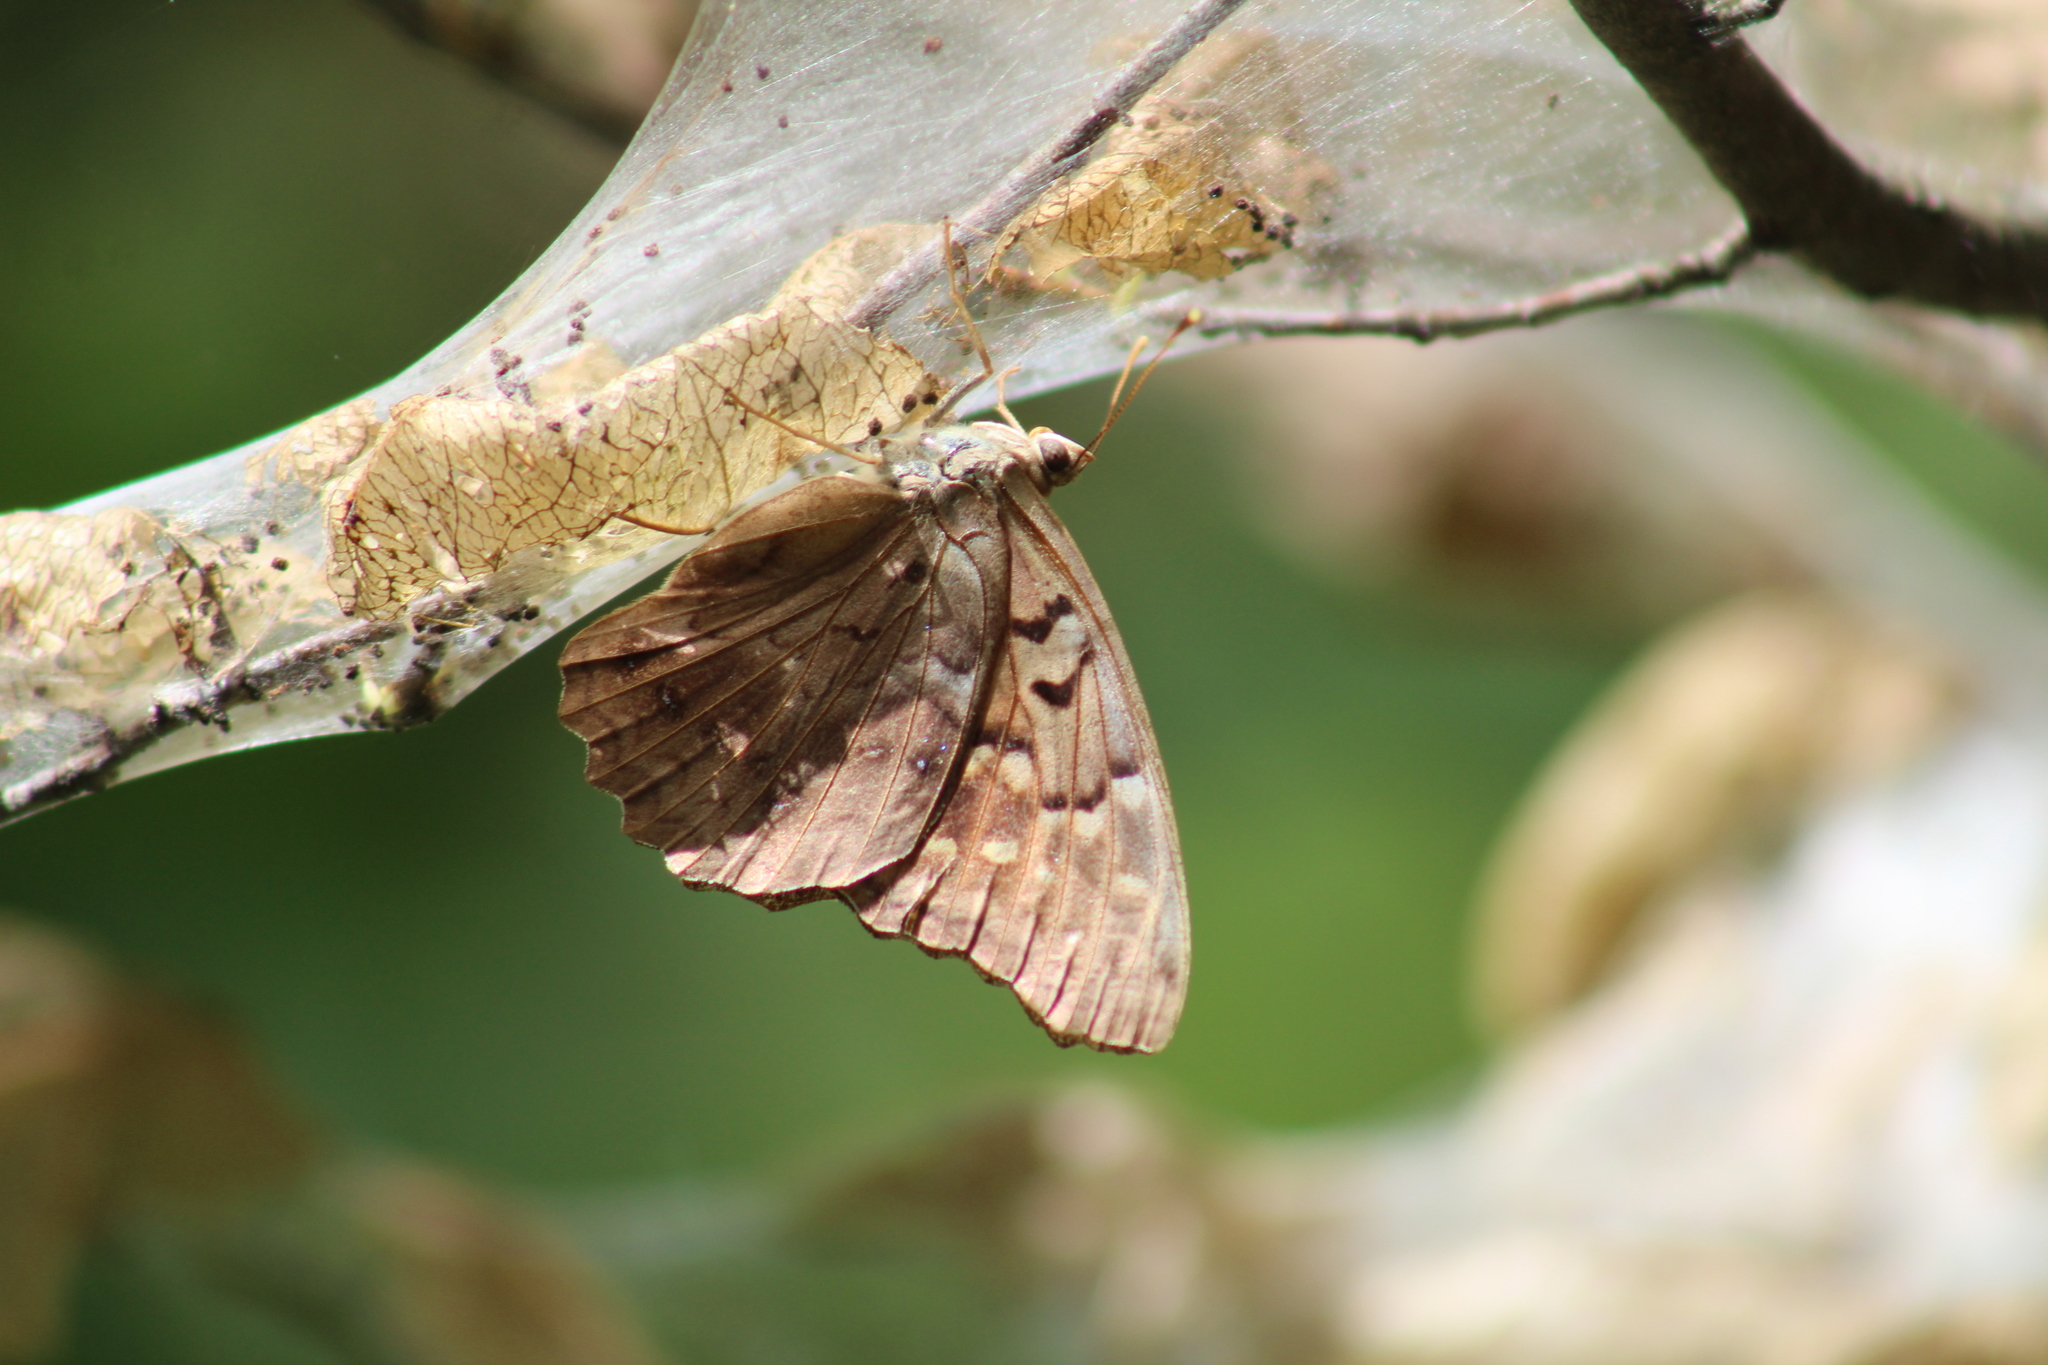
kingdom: Animalia
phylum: Arthropoda
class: Insecta
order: Lepidoptera
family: Nymphalidae
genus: Asterocampa
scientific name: Asterocampa clyton
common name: Tawny emperor
